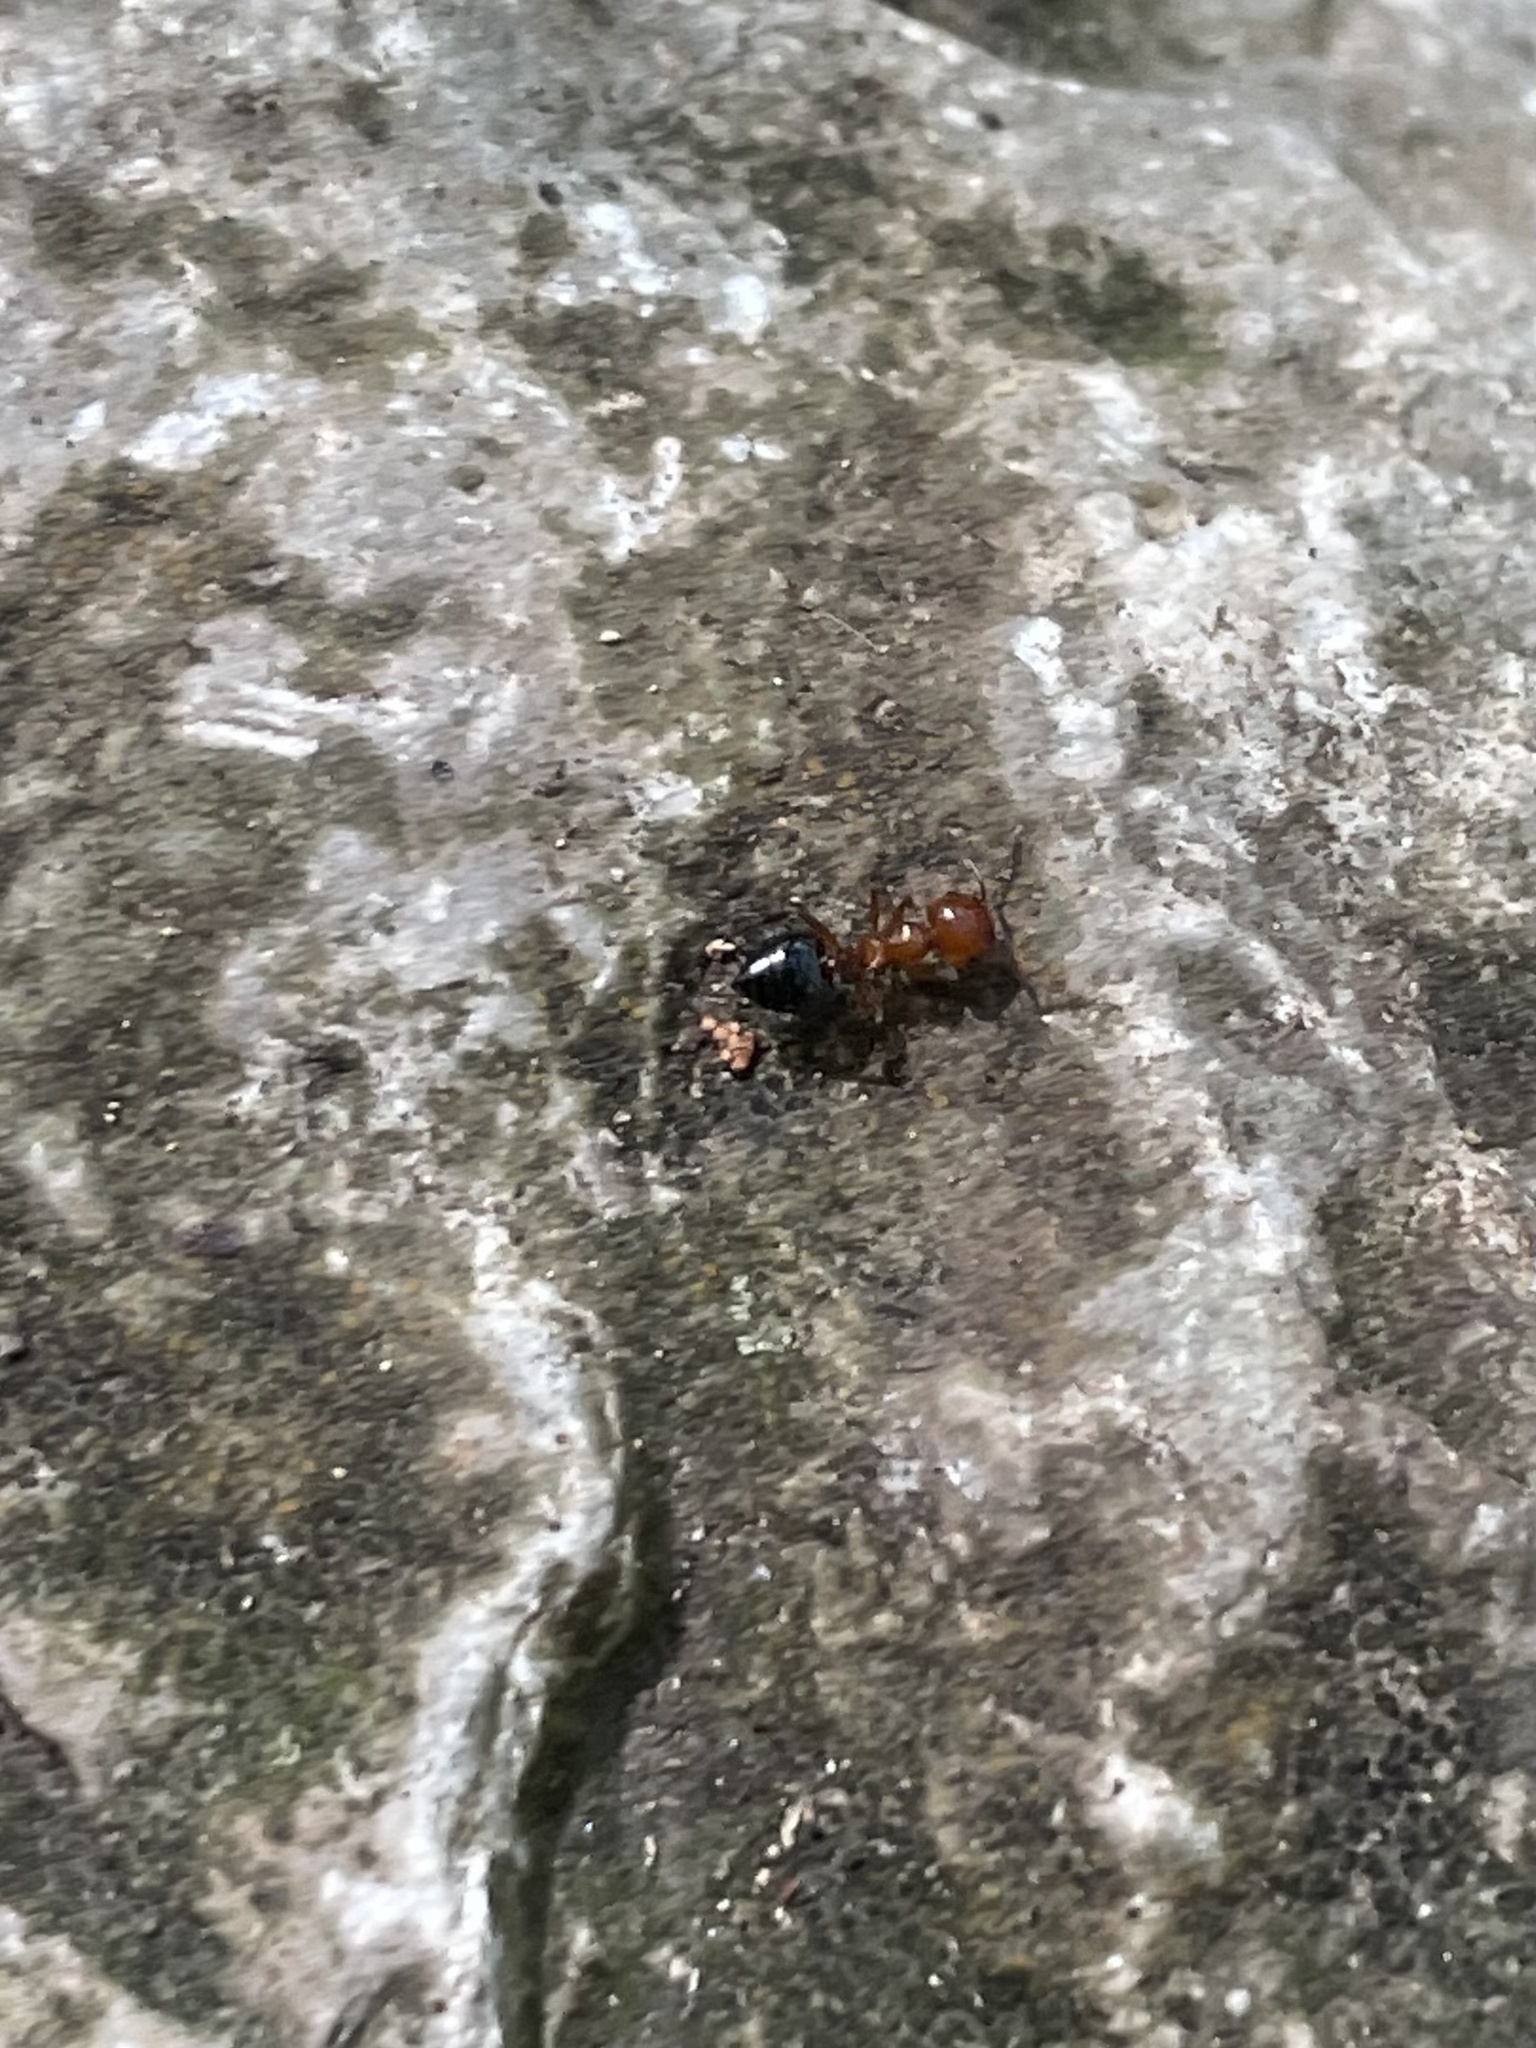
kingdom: Animalia
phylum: Arthropoda
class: Insecta
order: Hymenoptera
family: Formicidae
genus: Crematogaster
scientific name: Crematogaster laeviuscula
